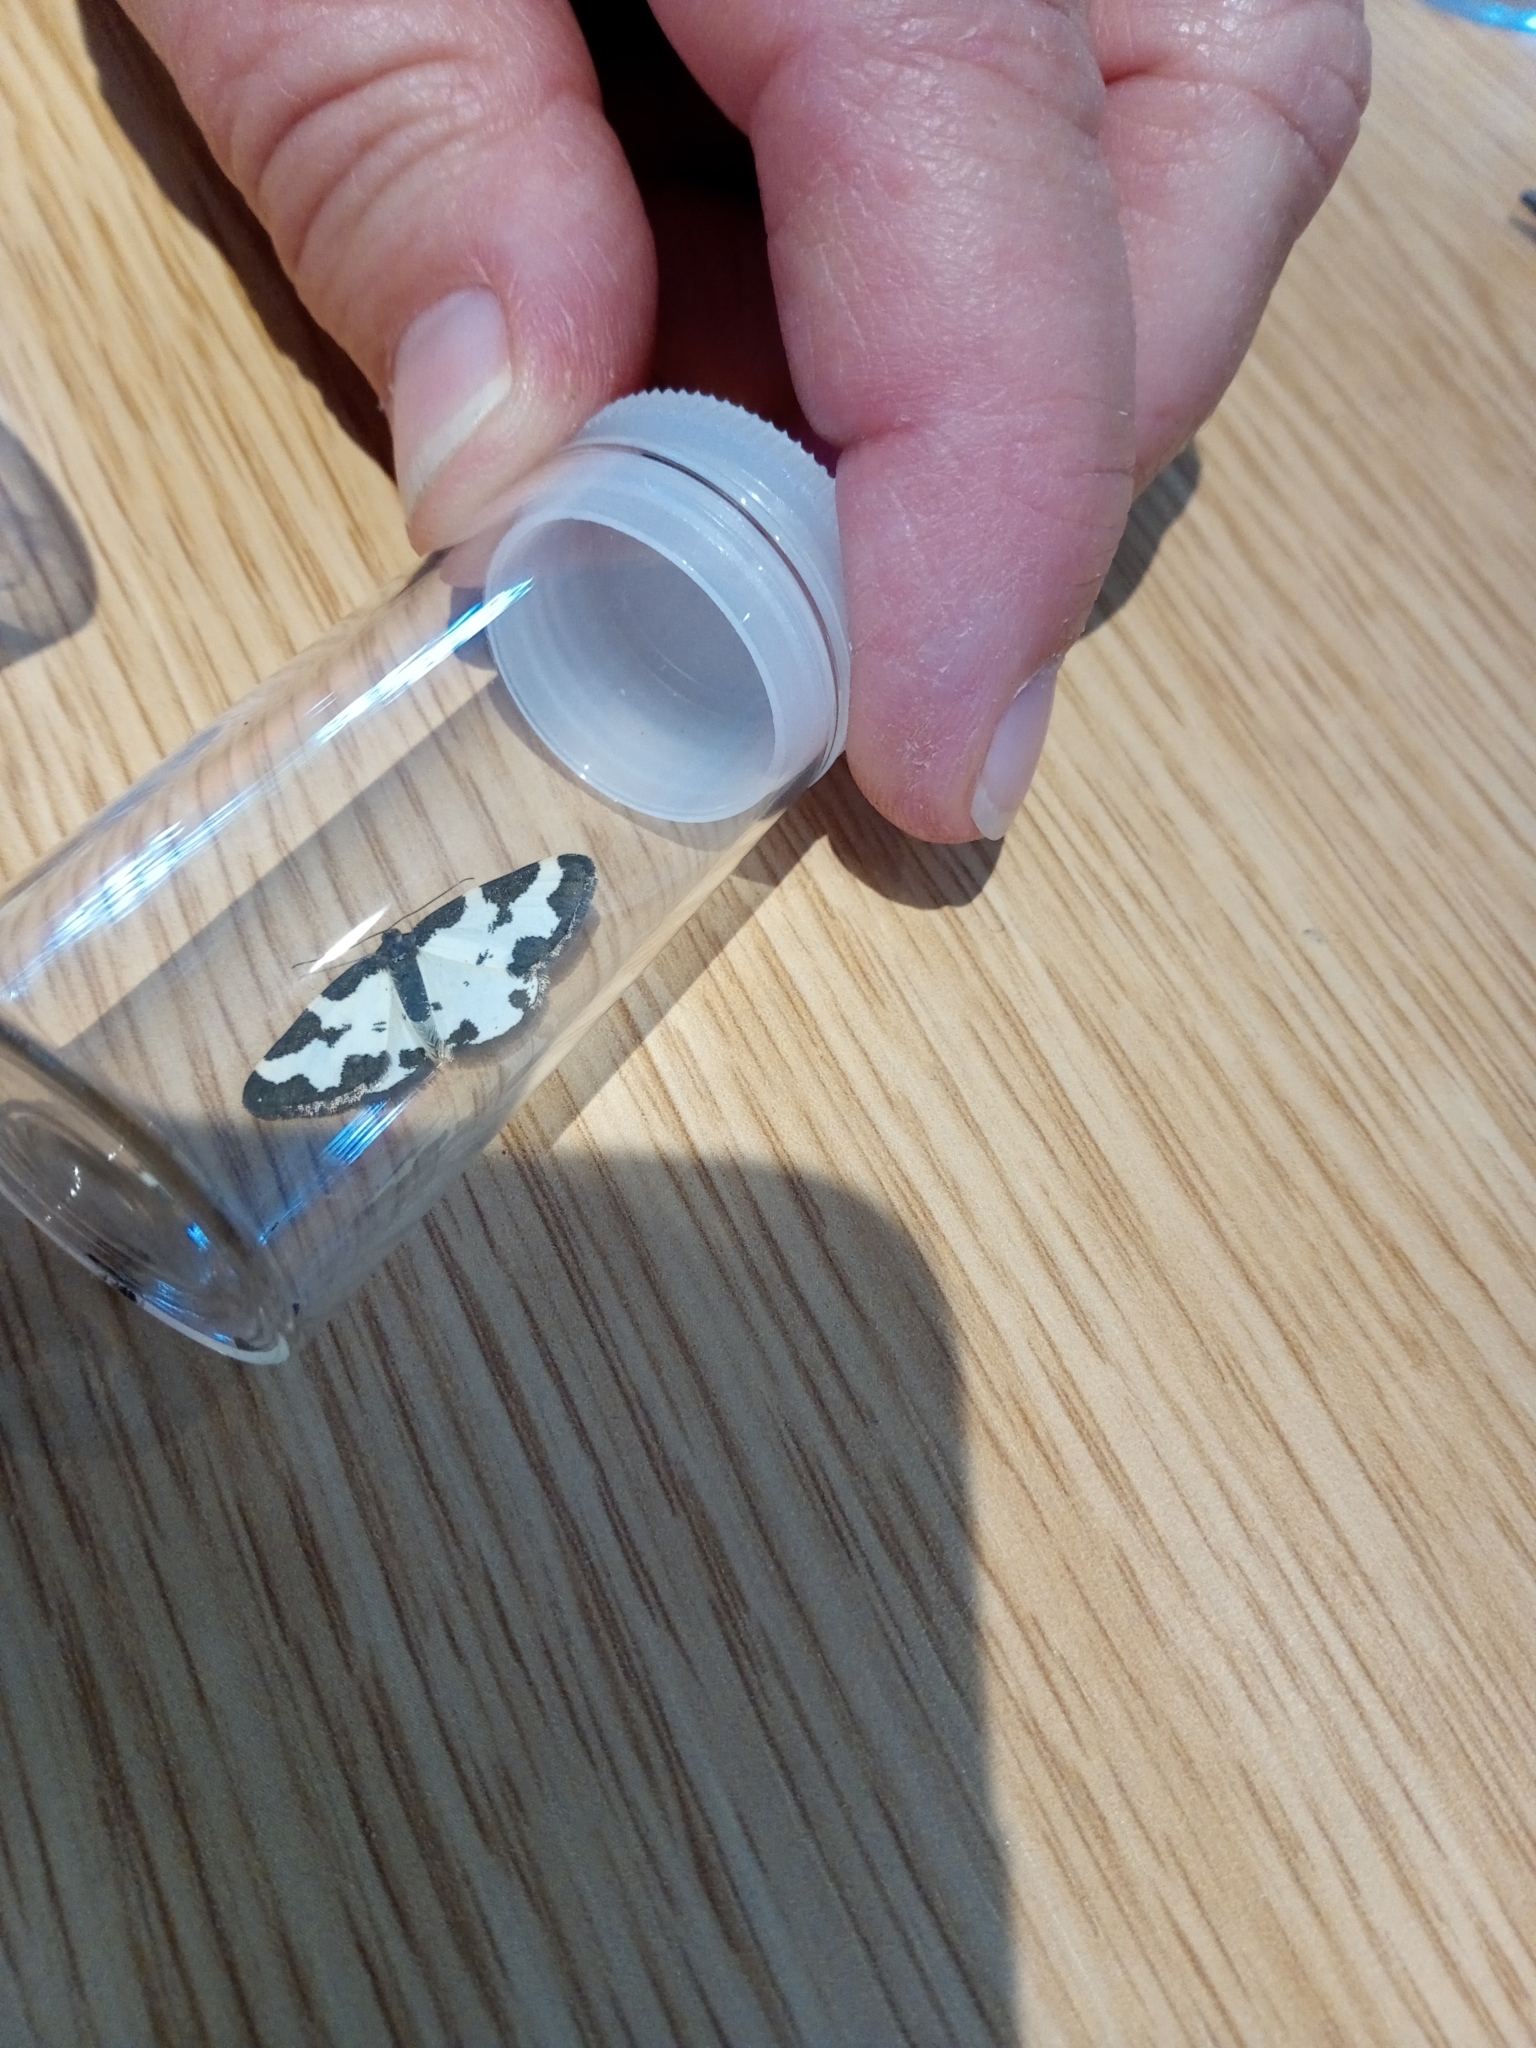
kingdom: Animalia
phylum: Arthropoda
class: Insecta
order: Lepidoptera
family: Geometridae
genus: Lomaspilis
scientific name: Lomaspilis marginata
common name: Clouded border
